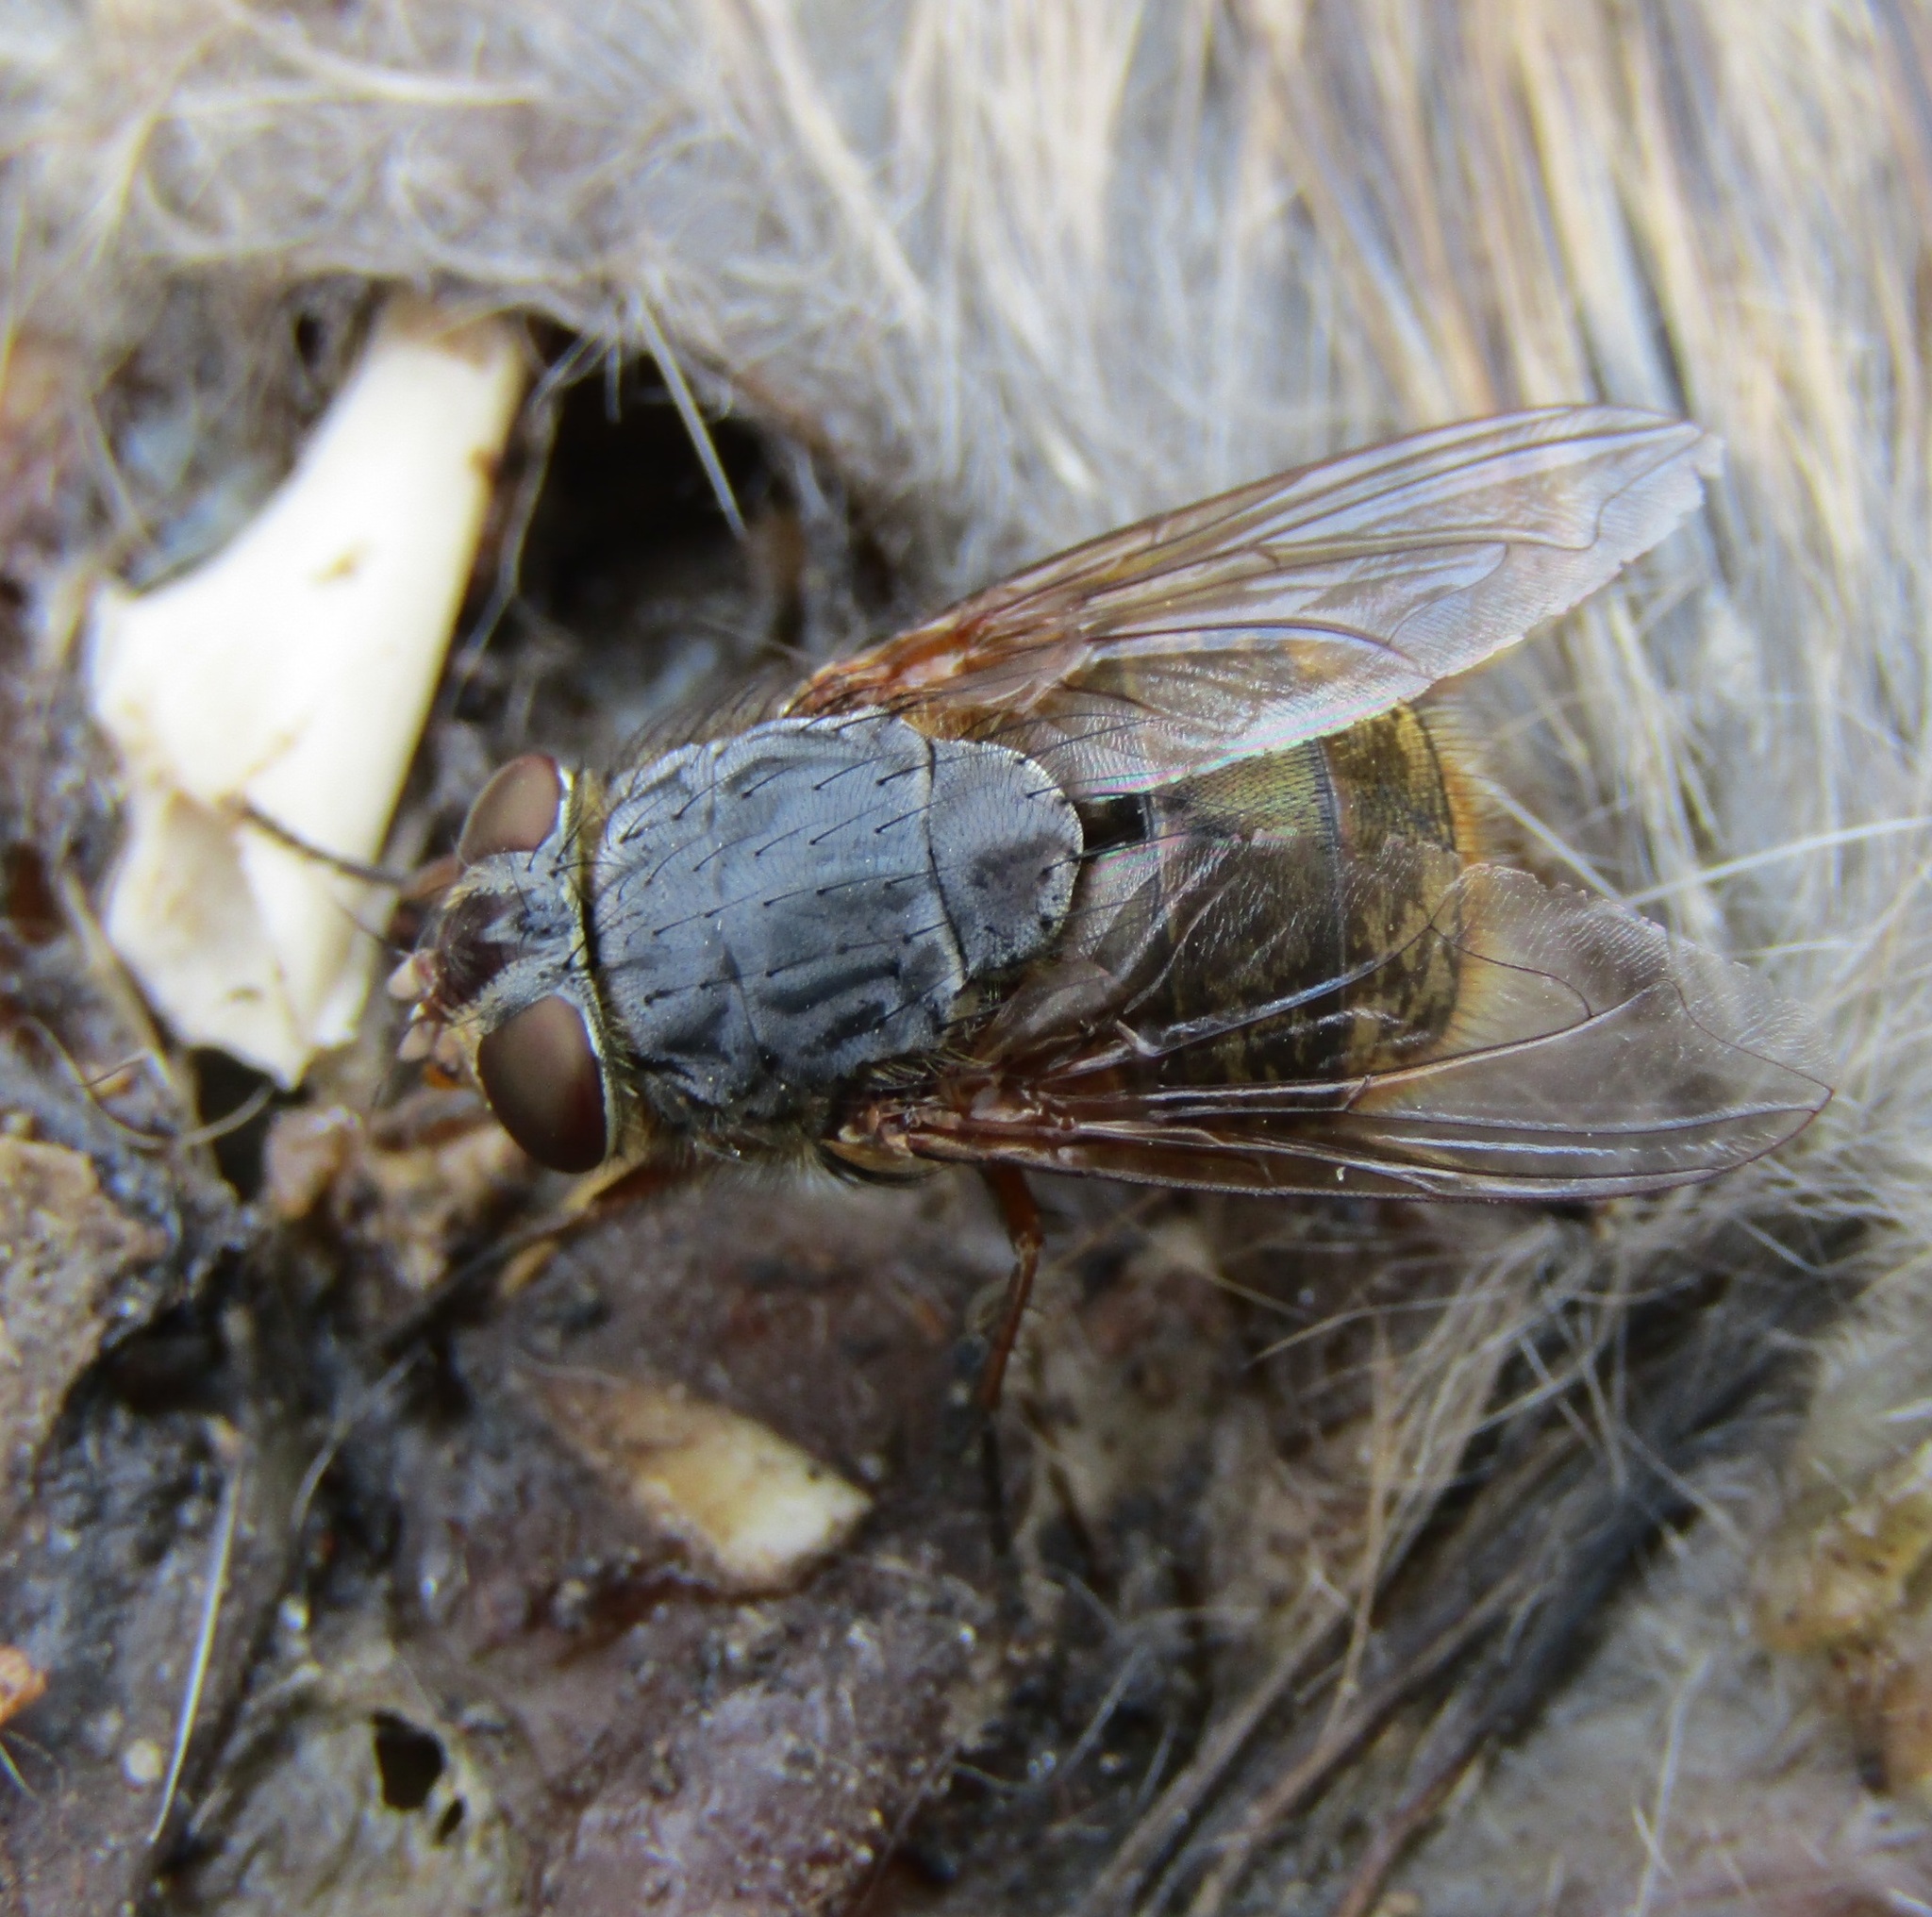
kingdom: Animalia
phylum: Arthropoda
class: Insecta
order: Diptera
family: Calliphoridae
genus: Calliphora
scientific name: Calliphora stygia
